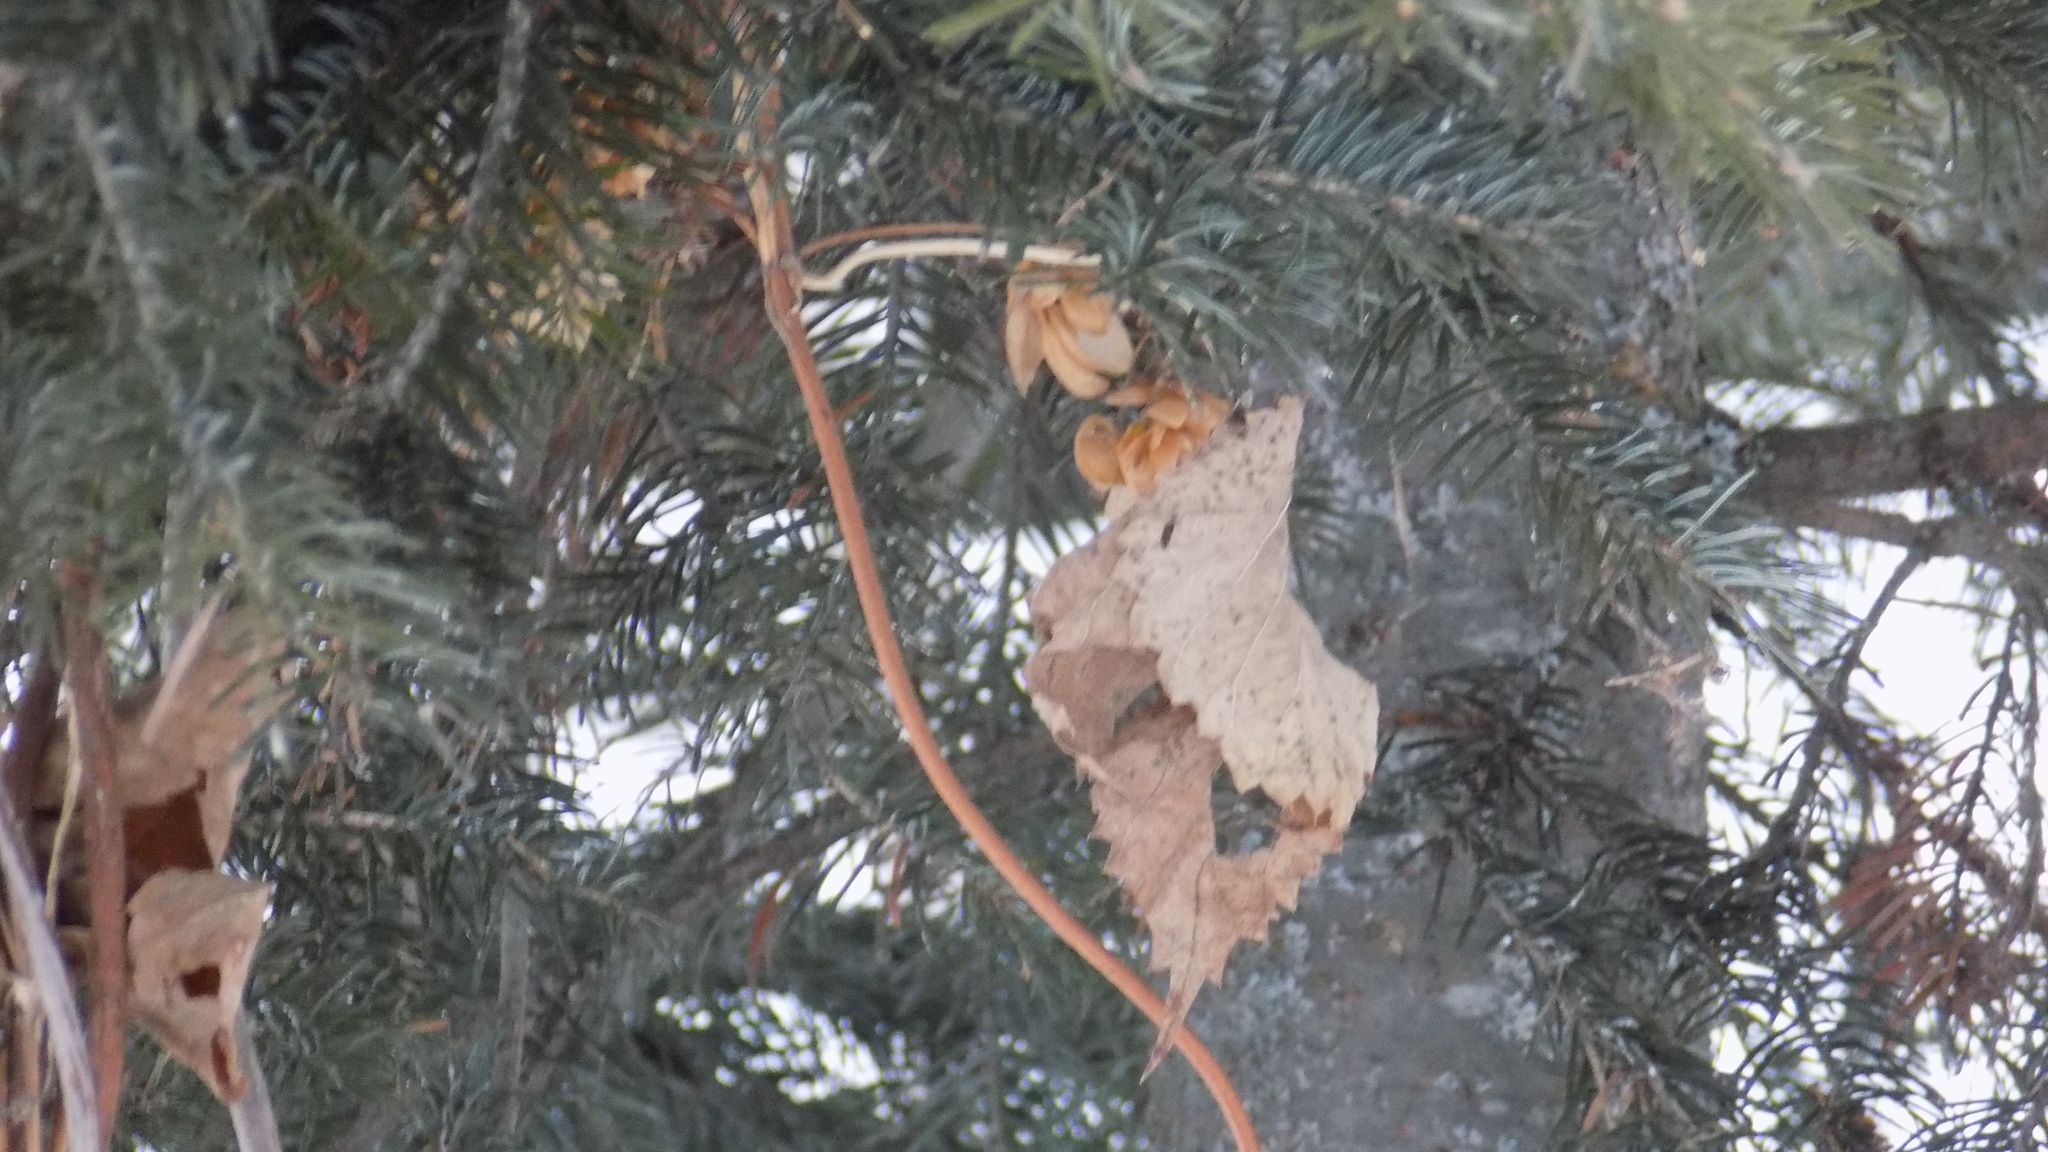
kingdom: Plantae
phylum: Tracheophyta
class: Magnoliopsida
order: Rosales
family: Cannabaceae
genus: Humulus
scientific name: Humulus lupulus
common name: Hop
